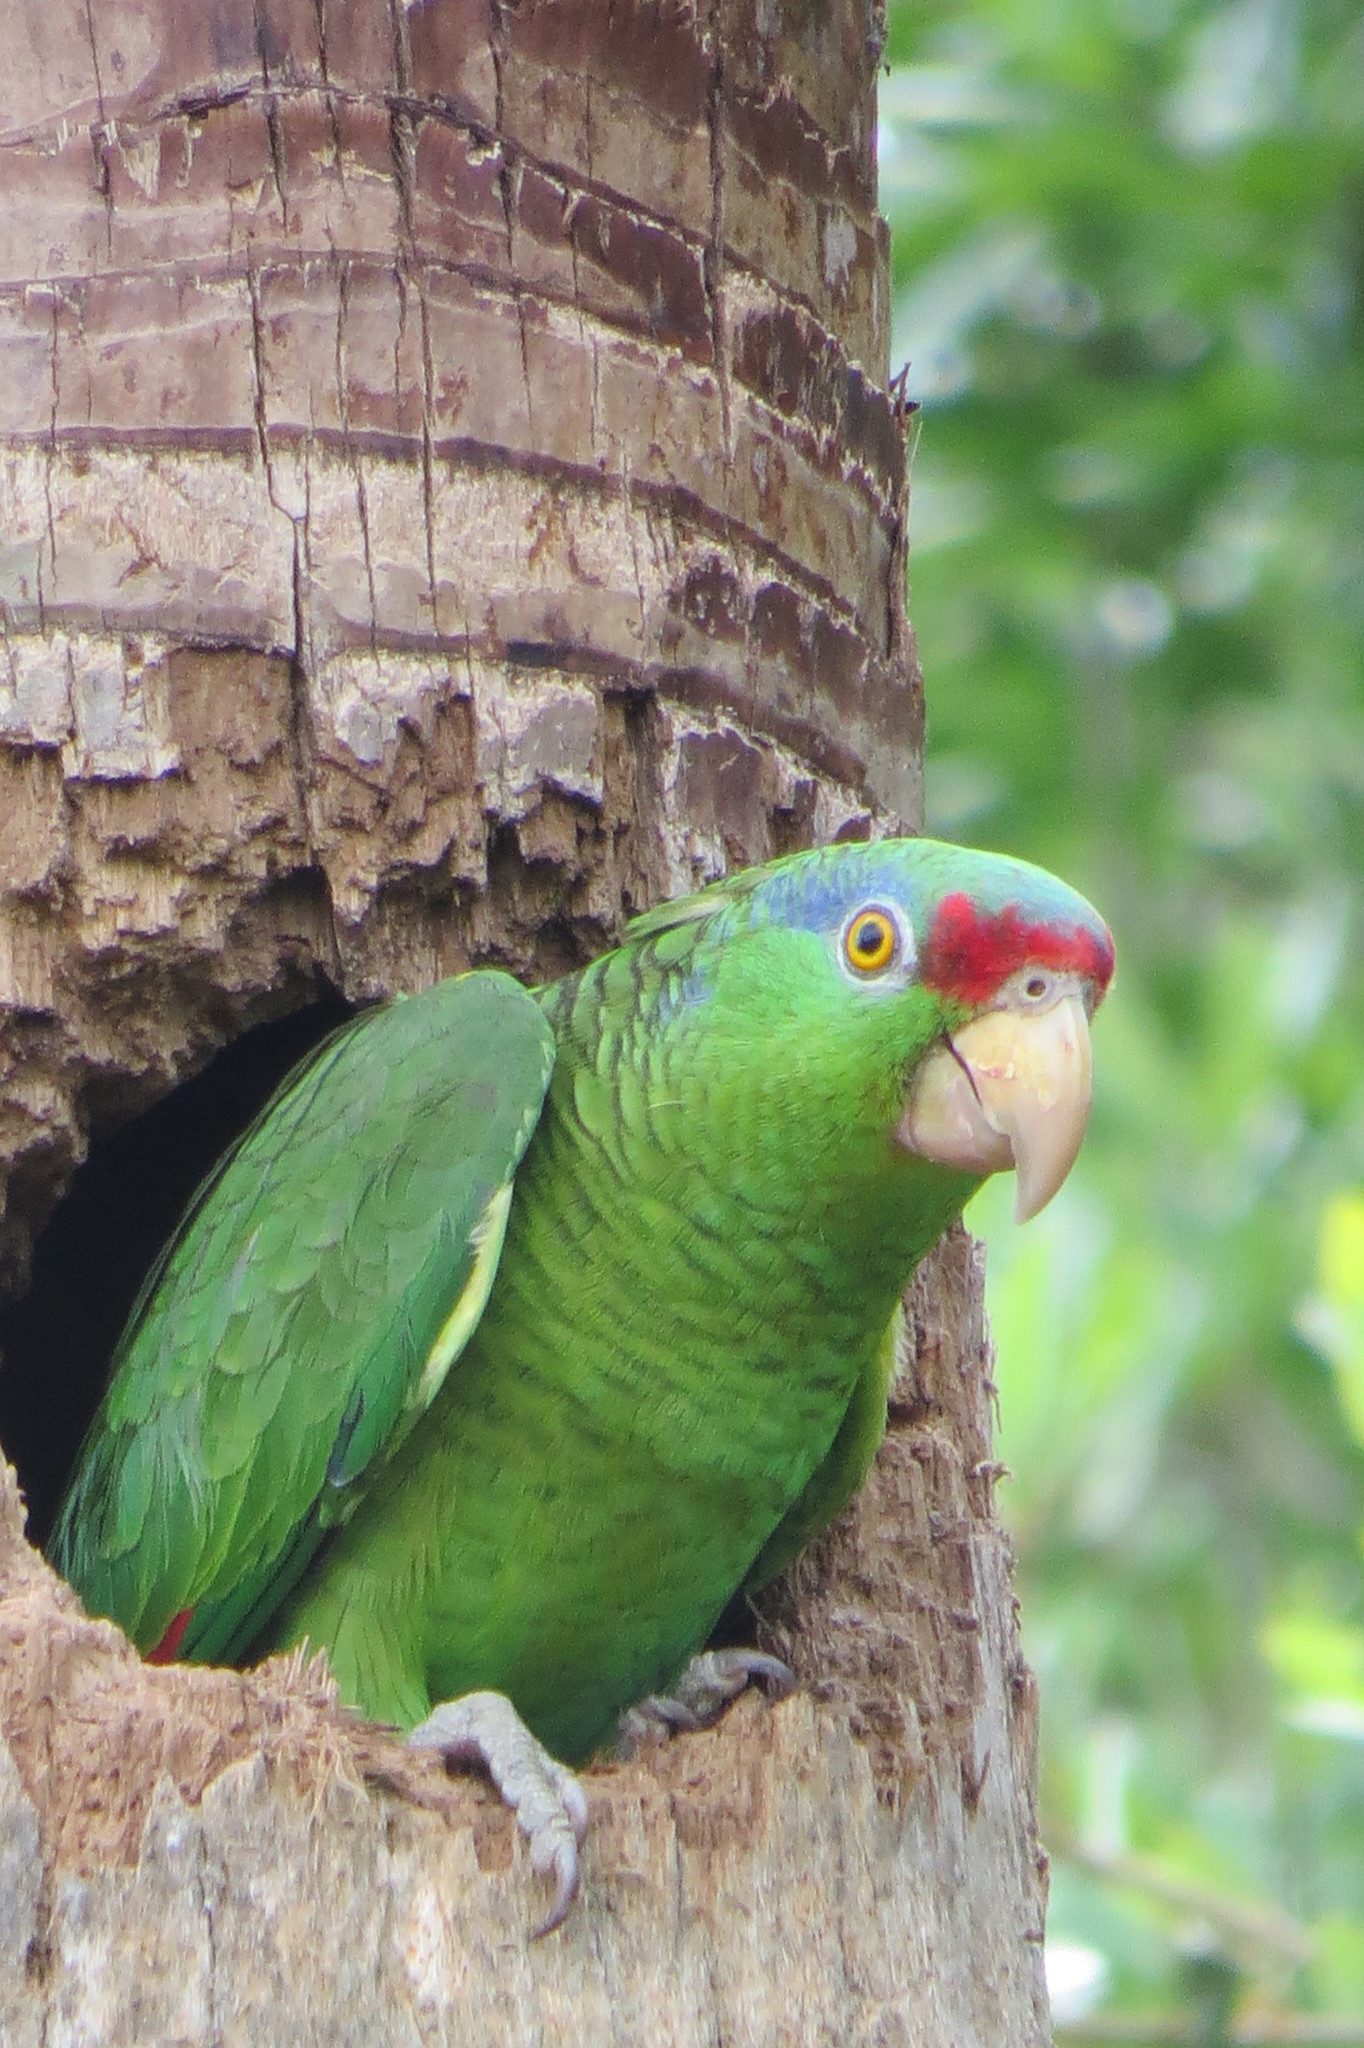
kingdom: Animalia
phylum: Chordata
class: Aves
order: Psittaciformes
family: Psittacidae
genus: Amazona
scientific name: Amazona viridigenalis
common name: Red-crowned amazon
